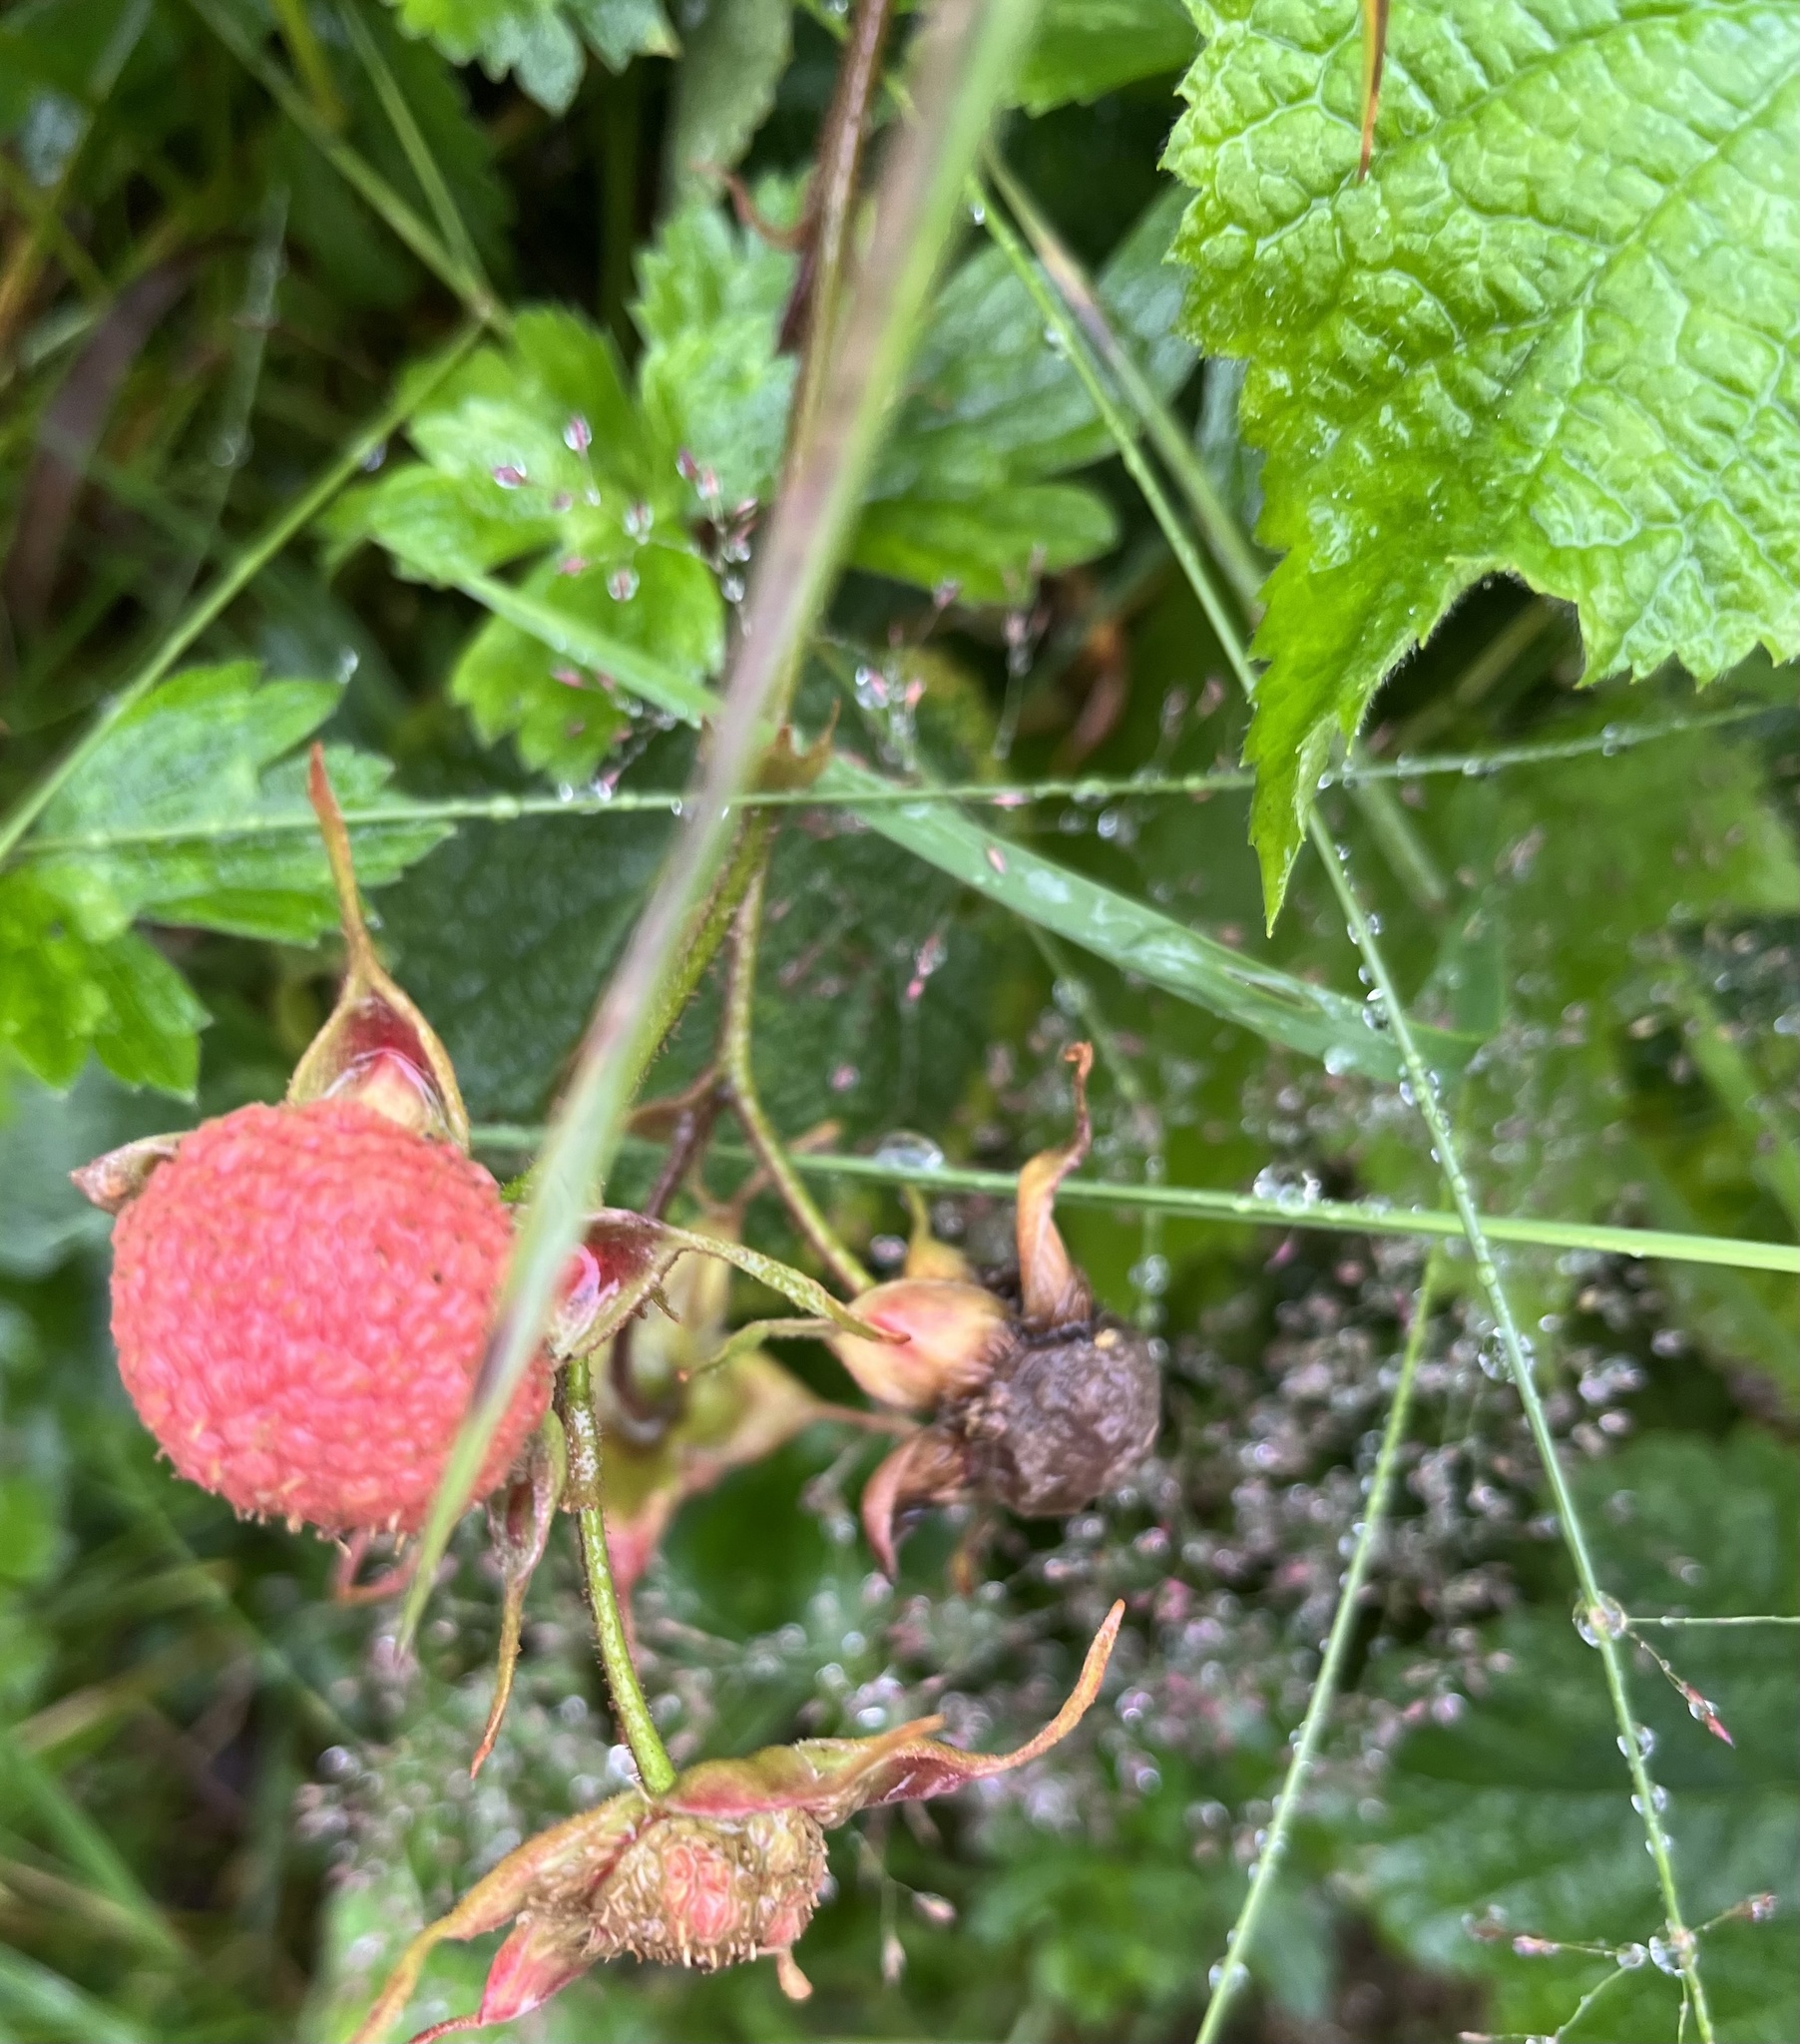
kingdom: Plantae
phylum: Tracheophyta
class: Magnoliopsida
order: Rosales
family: Rosaceae
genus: Rubus
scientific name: Rubus parviflorus
